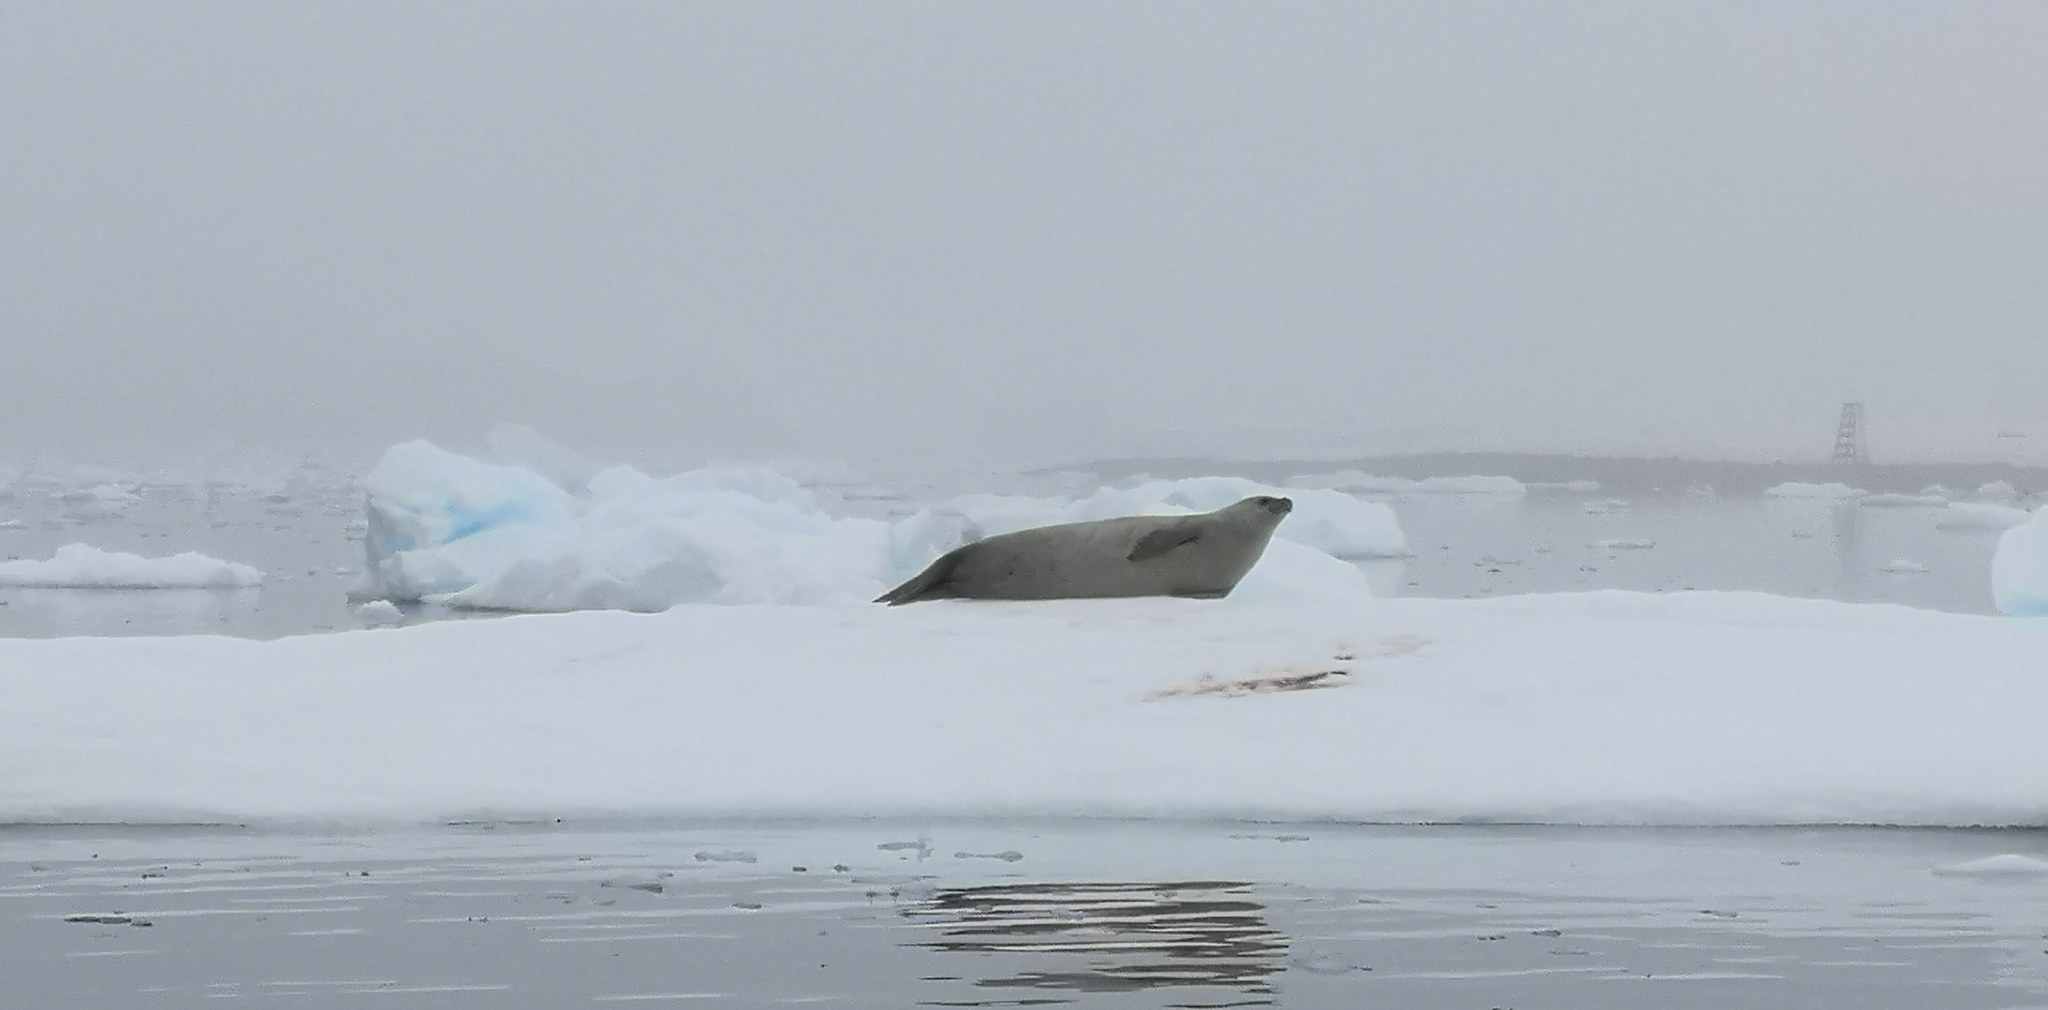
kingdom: Animalia
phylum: Chordata
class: Mammalia
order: Carnivora
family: Phocidae
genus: Lobodon
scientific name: Lobodon carcinophaga
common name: Crabeater seal
